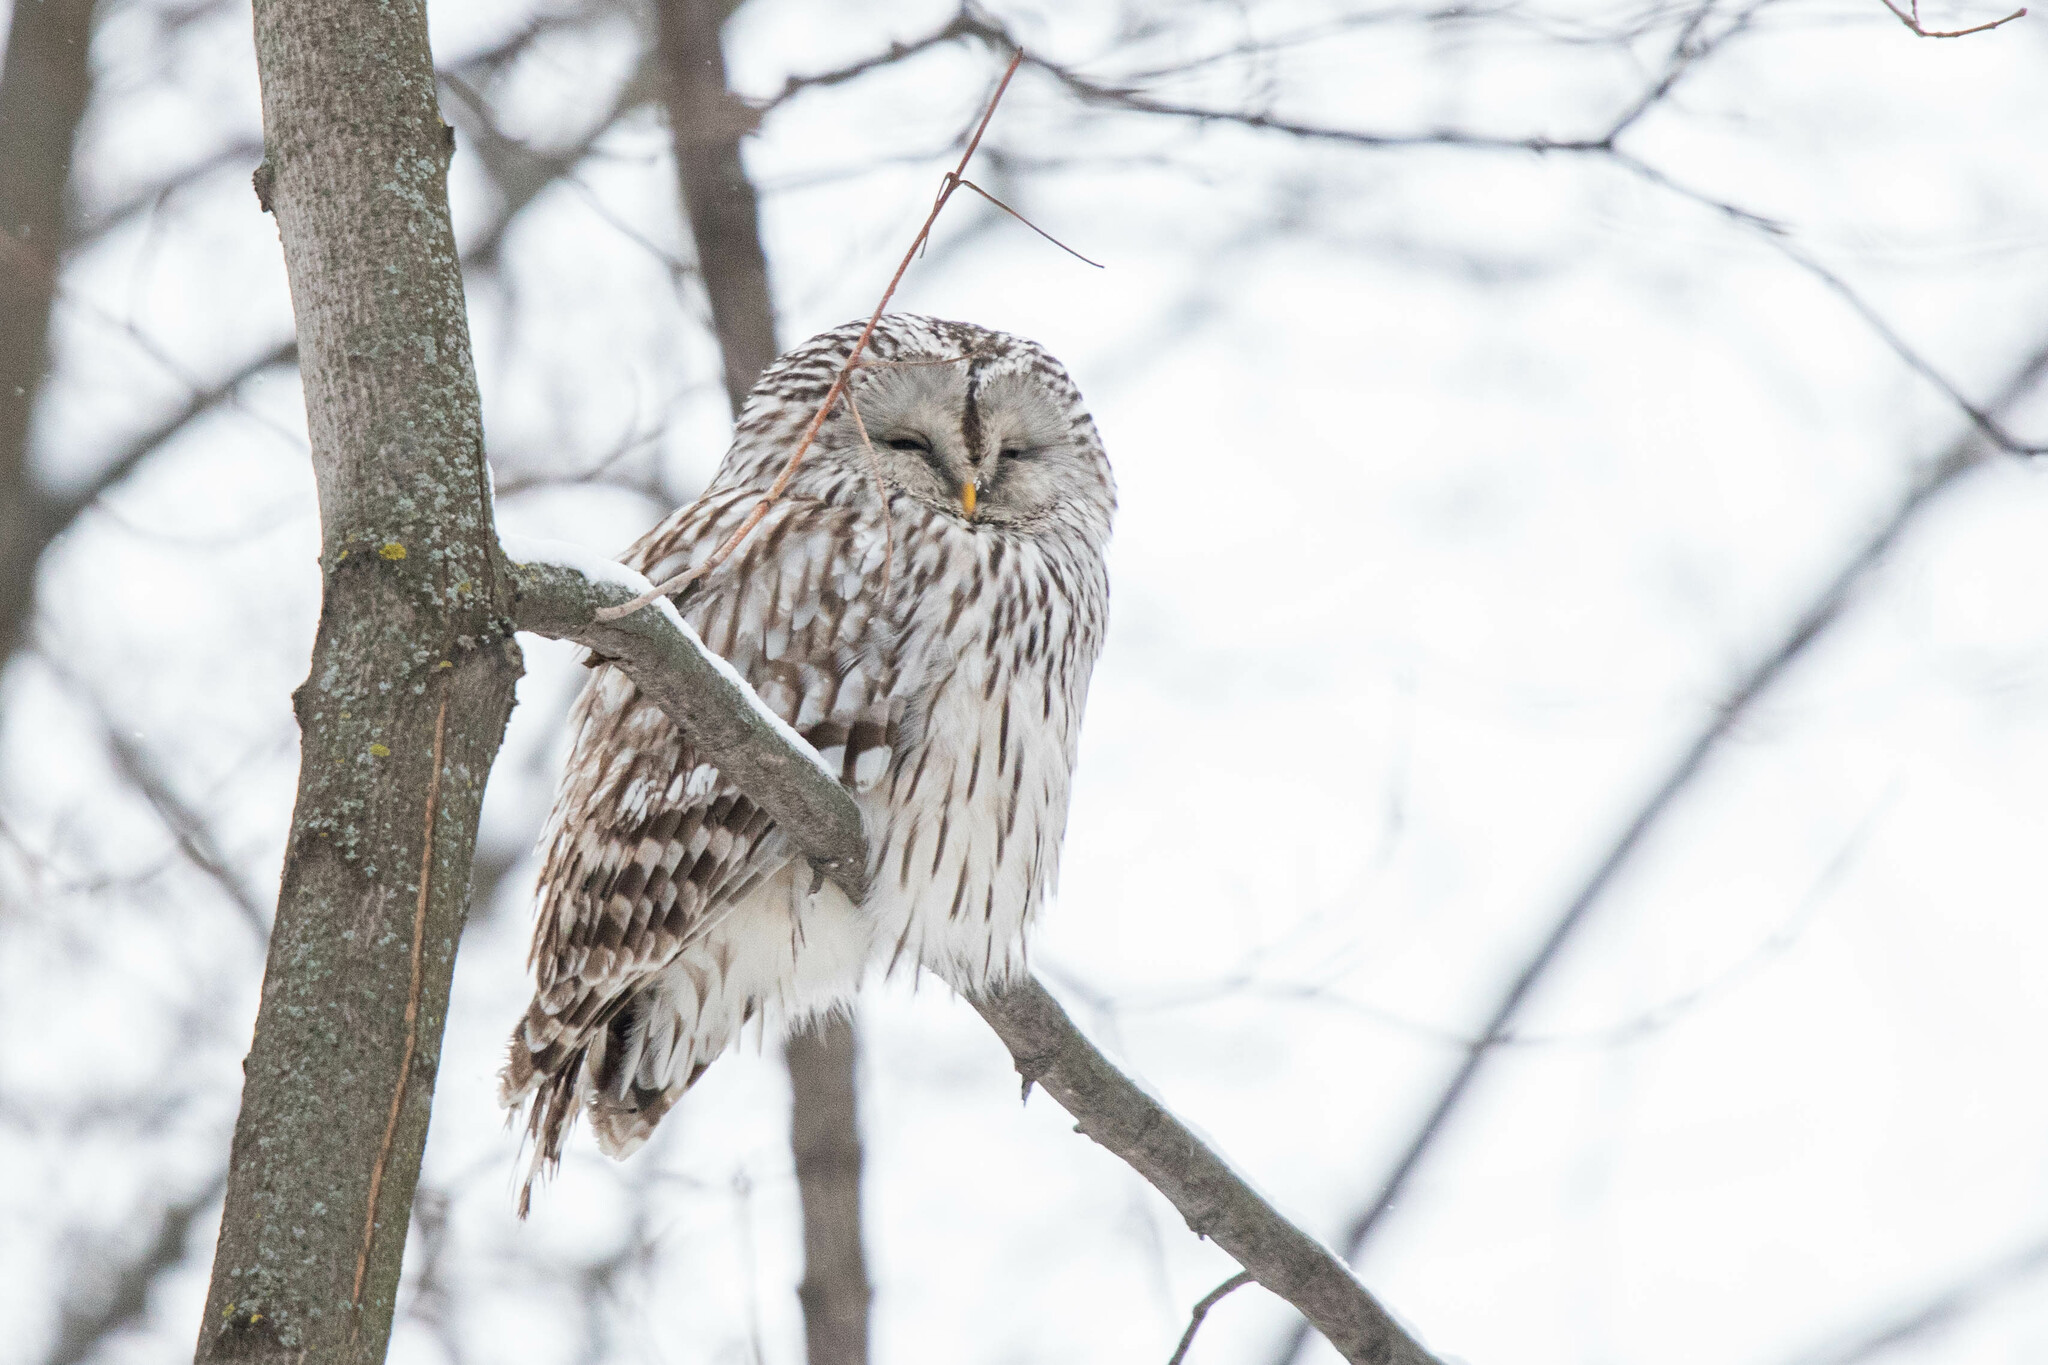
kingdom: Animalia
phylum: Chordata
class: Aves
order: Strigiformes
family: Strigidae
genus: Strix
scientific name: Strix uralensis
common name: Ural owl
